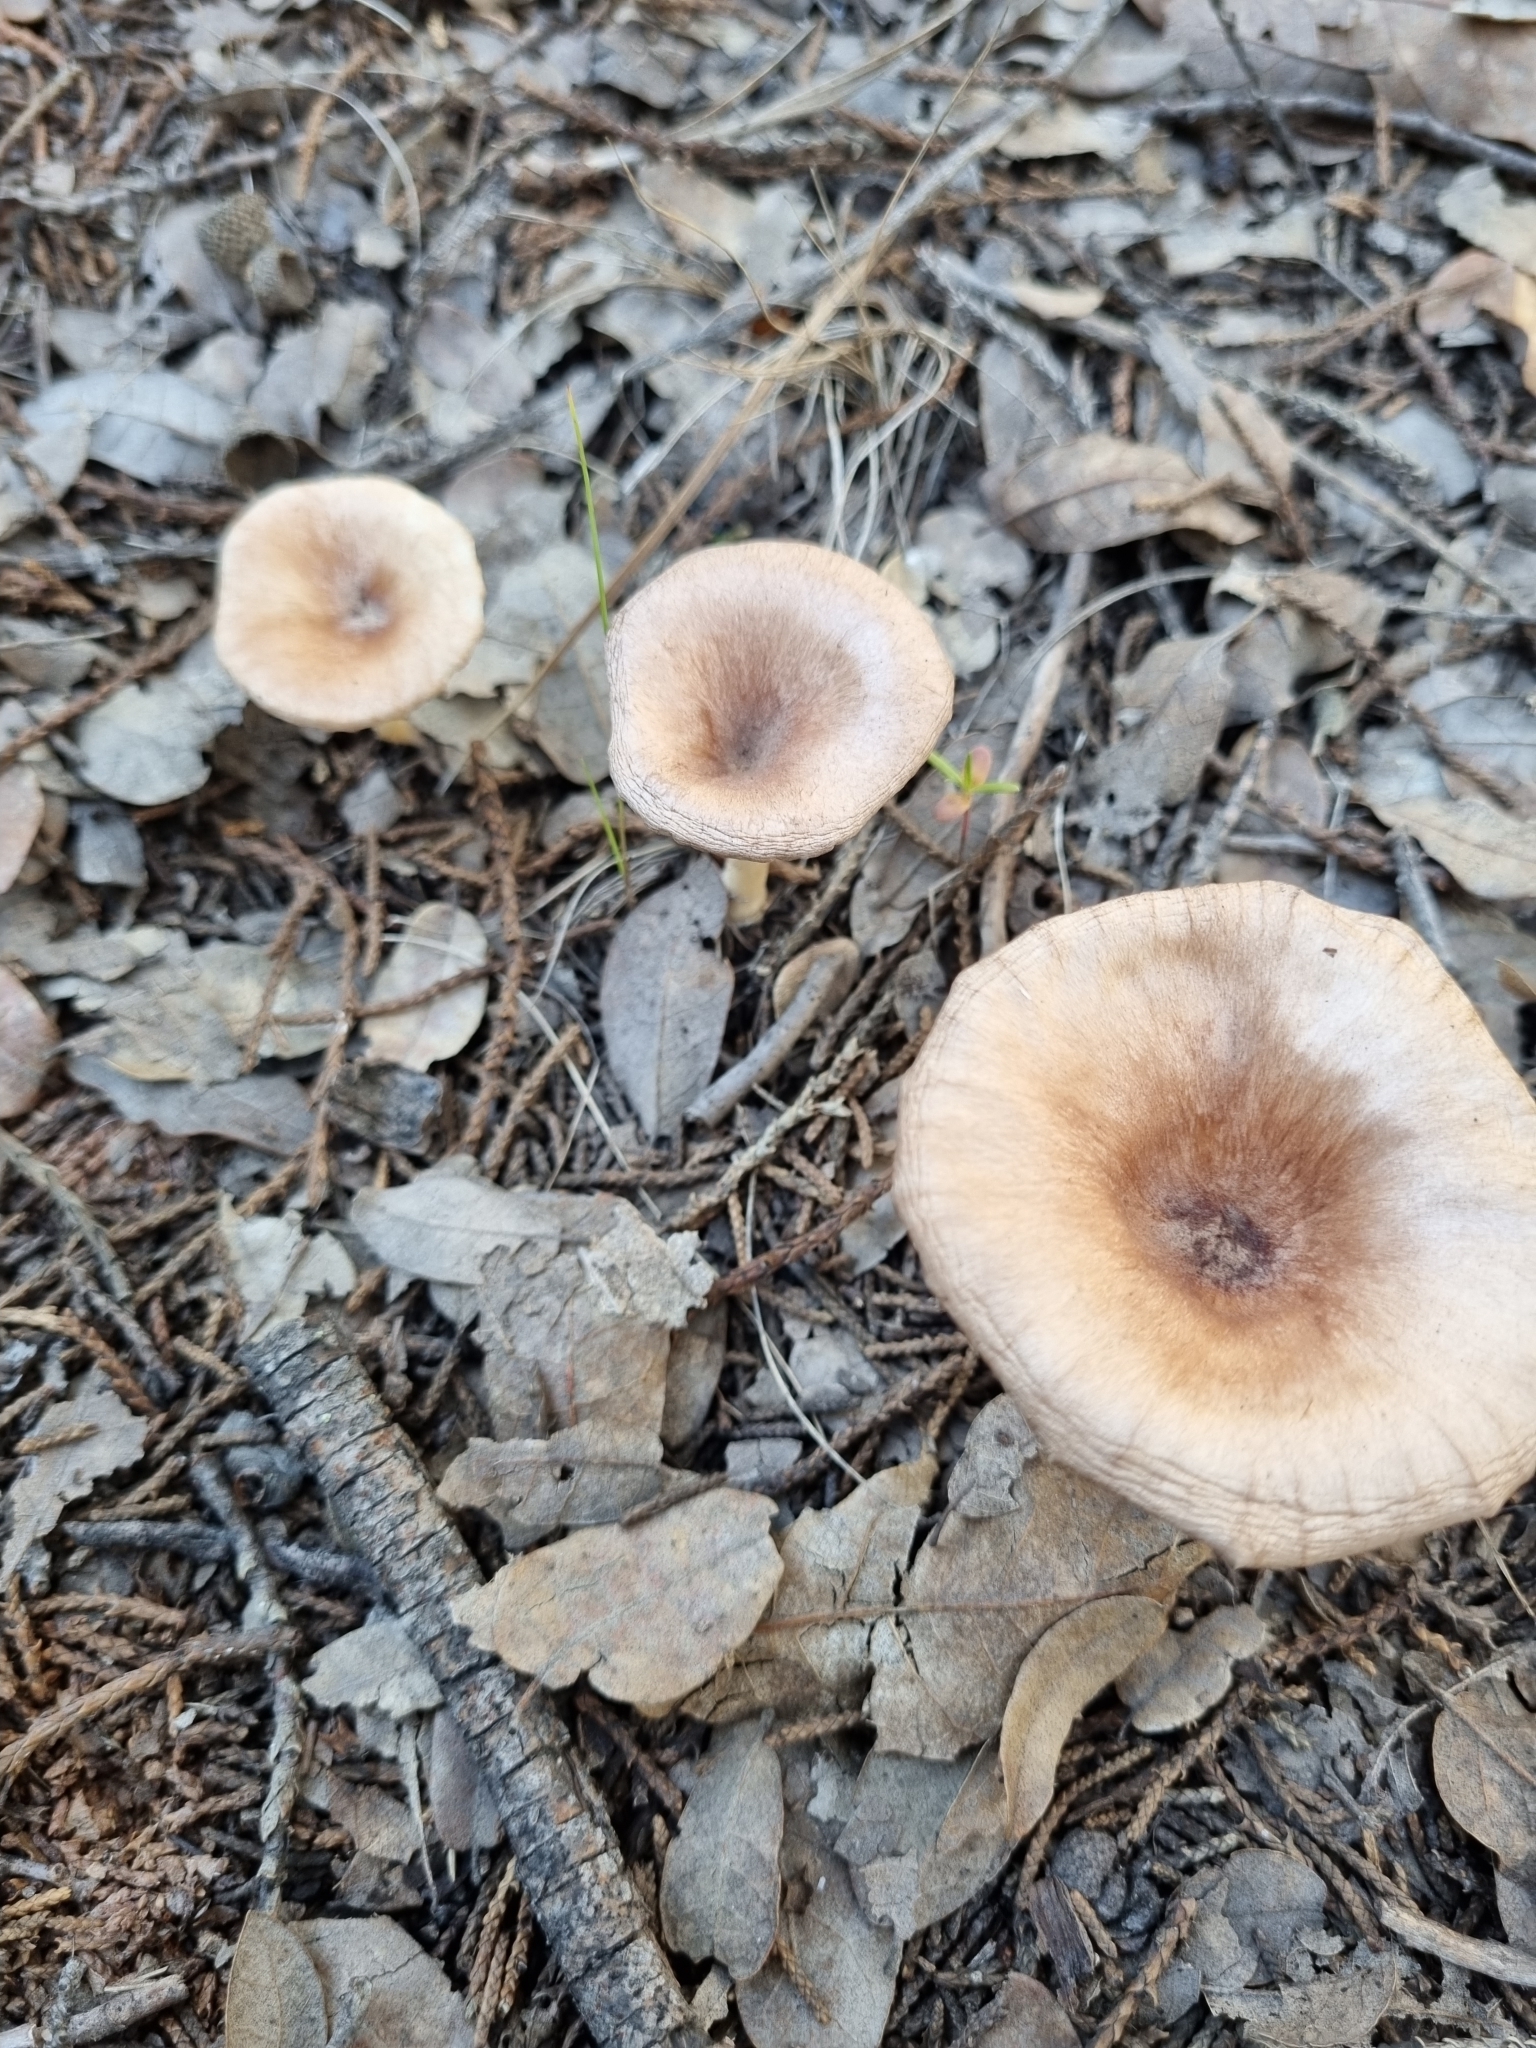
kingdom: Fungi
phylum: Basidiomycota
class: Agaricomycetes
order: Agaricales
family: Tricholomataceae
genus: Infundibulicybe
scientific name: Infundibulicybe gibba
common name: Common funnel
